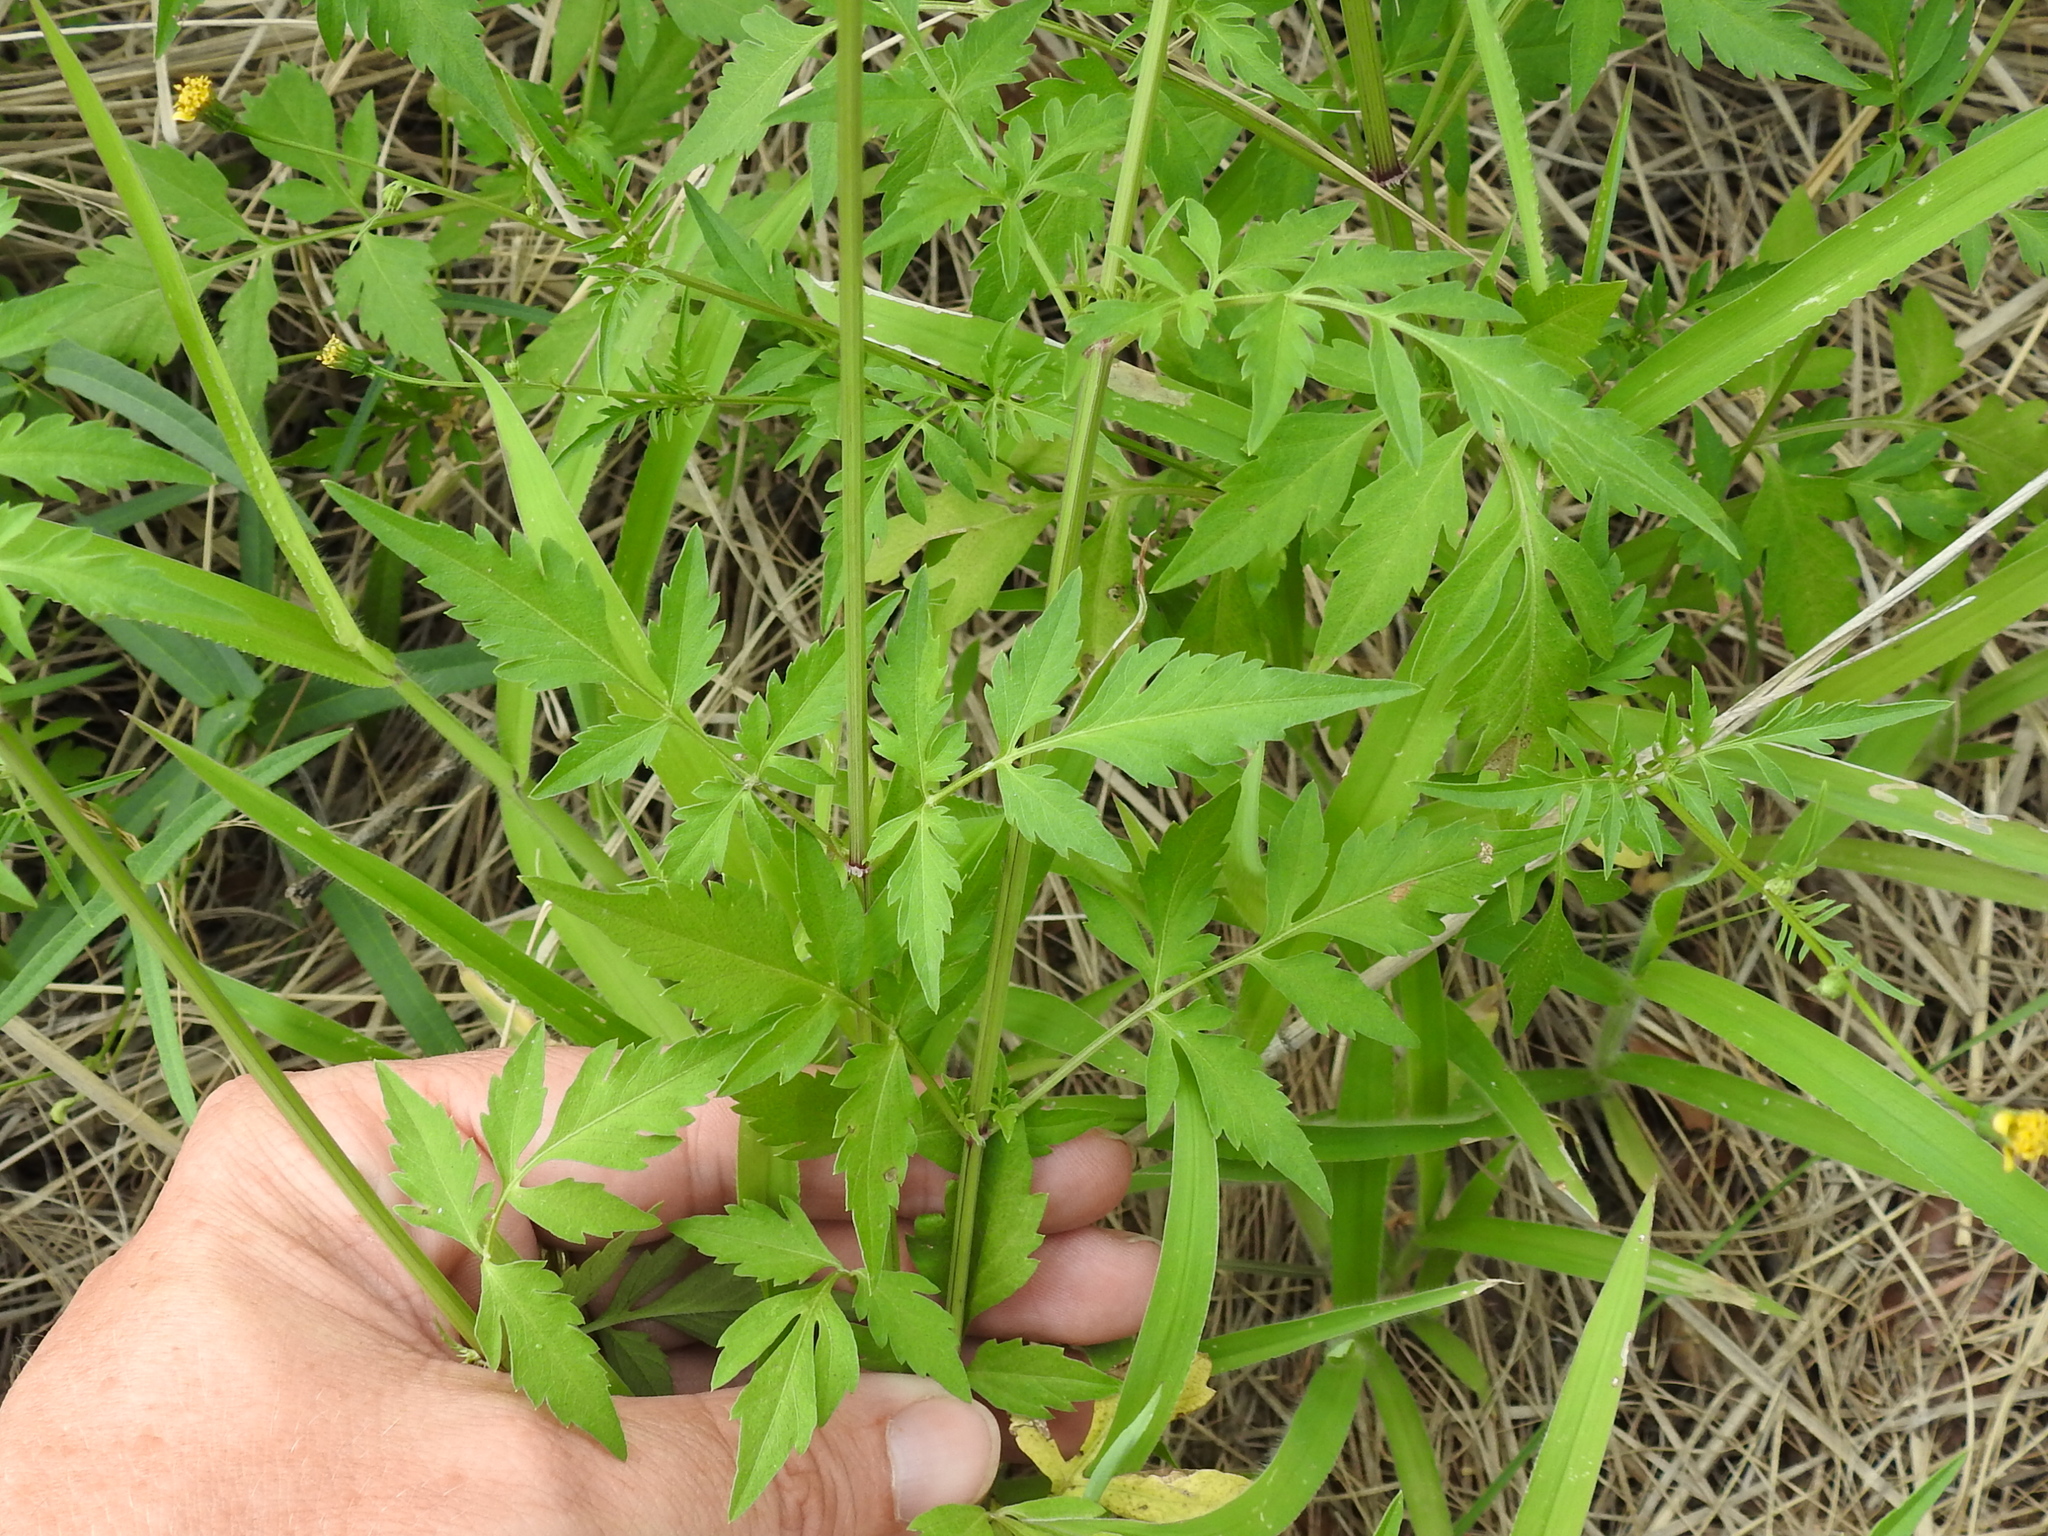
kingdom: Plantae
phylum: Tracheophyta
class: Magnoliopsida
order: Asterales
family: Asteraceae
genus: Bidens
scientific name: Bidens leptocephala
